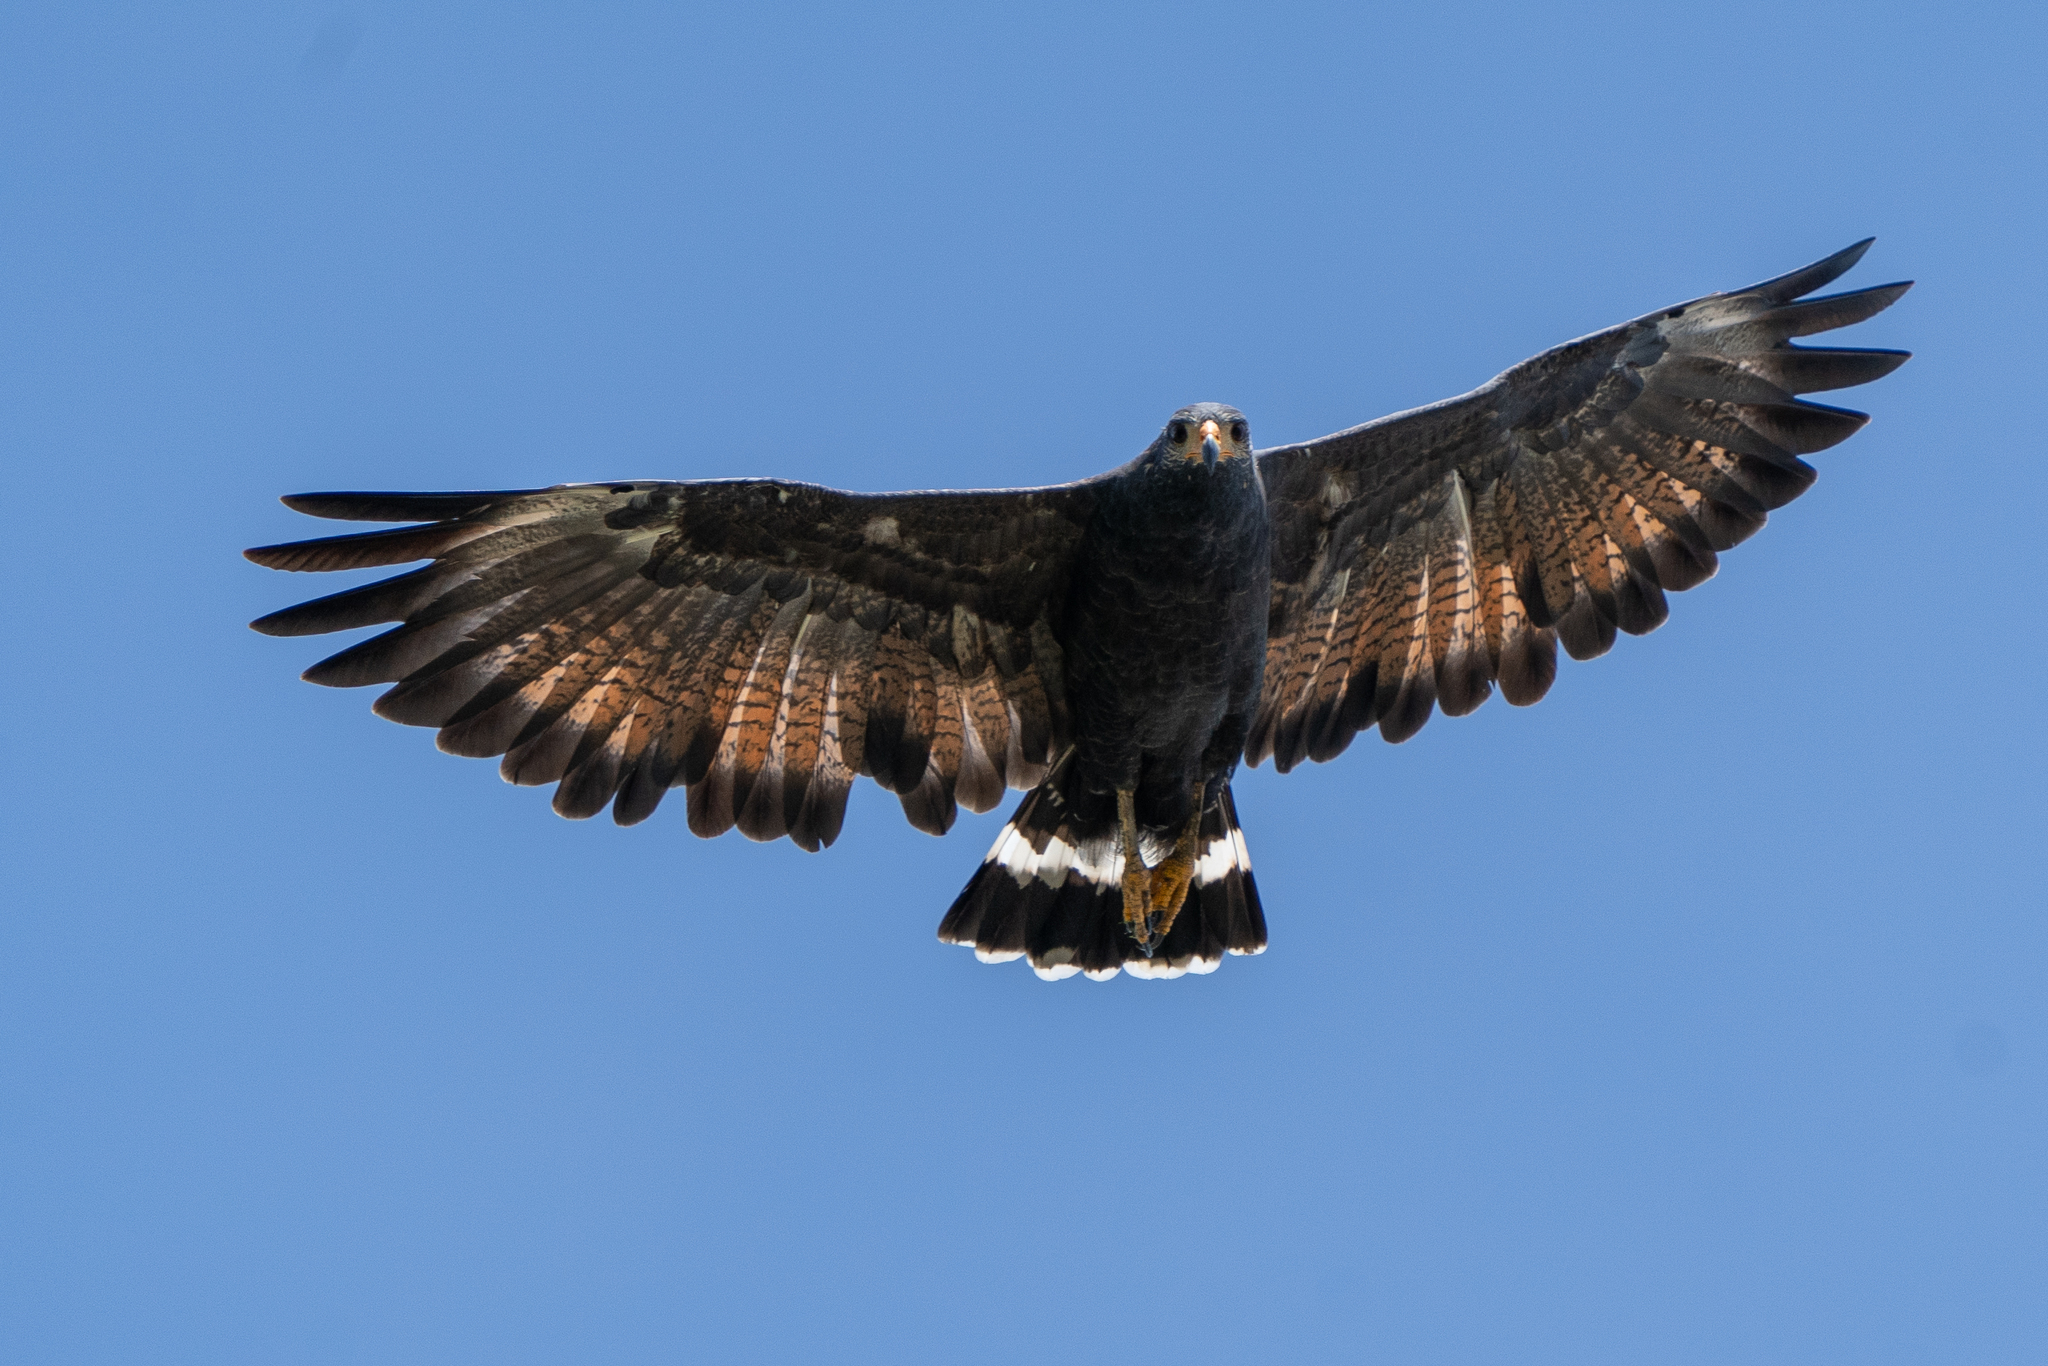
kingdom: Animalia
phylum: Chordata
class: Aves
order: Accipitriformes
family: Accipitridae
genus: Buteogallus
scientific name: Buteogallus anthracinus
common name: Common black hawk
